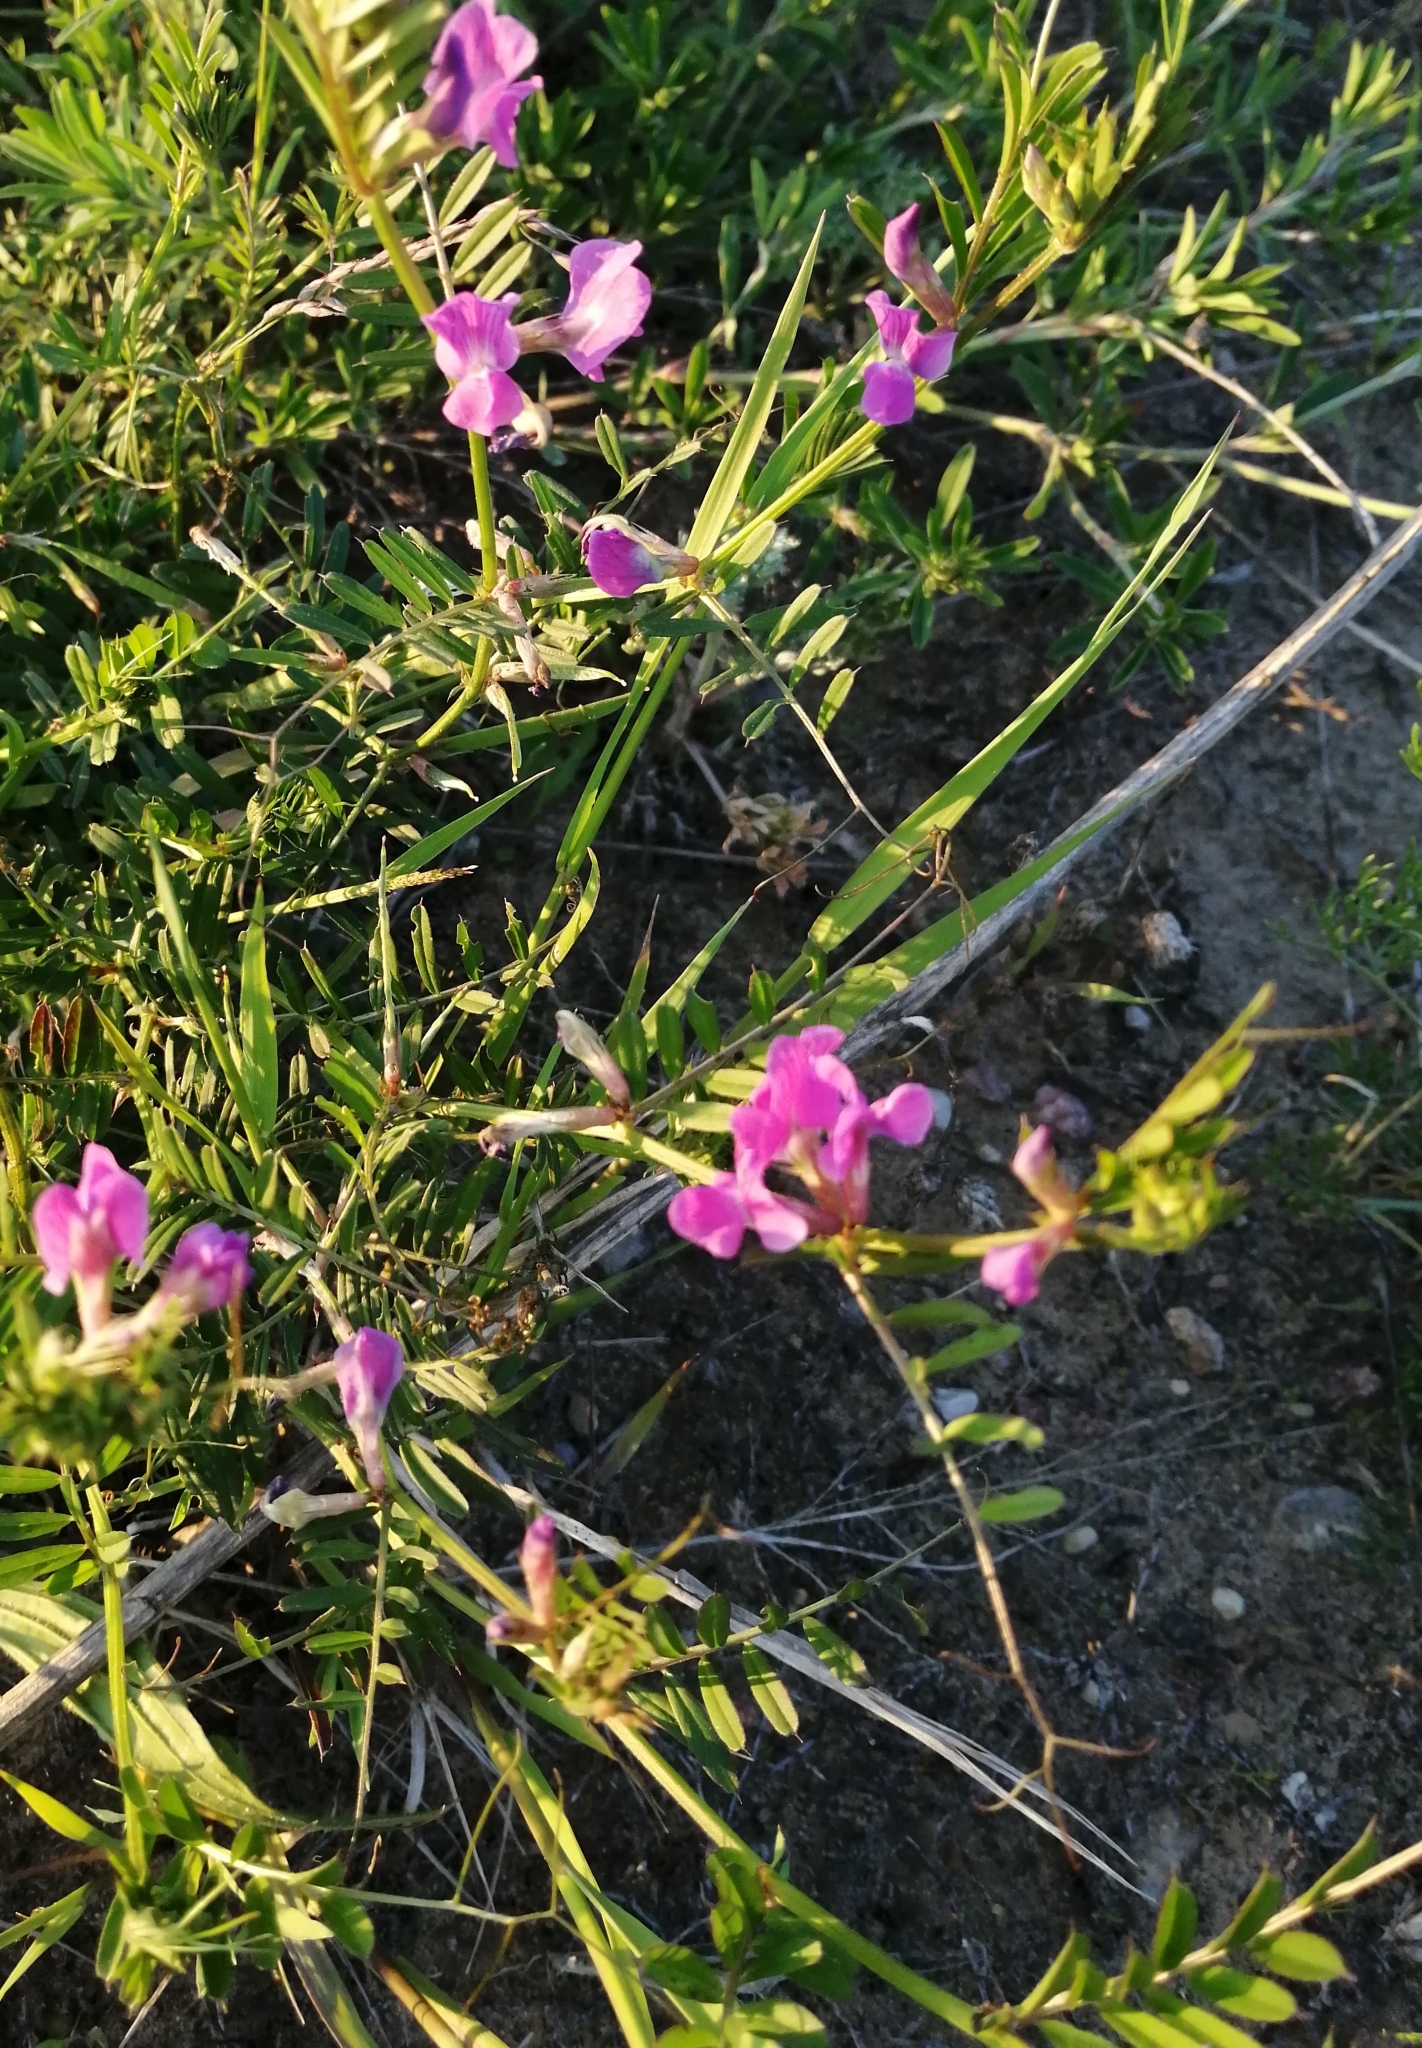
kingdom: Plantae
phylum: Tracheophyta
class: Magnoliopsida
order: Fabales
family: Fabaceae
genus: Vicia
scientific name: Vicia sativa
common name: Garden vetch
